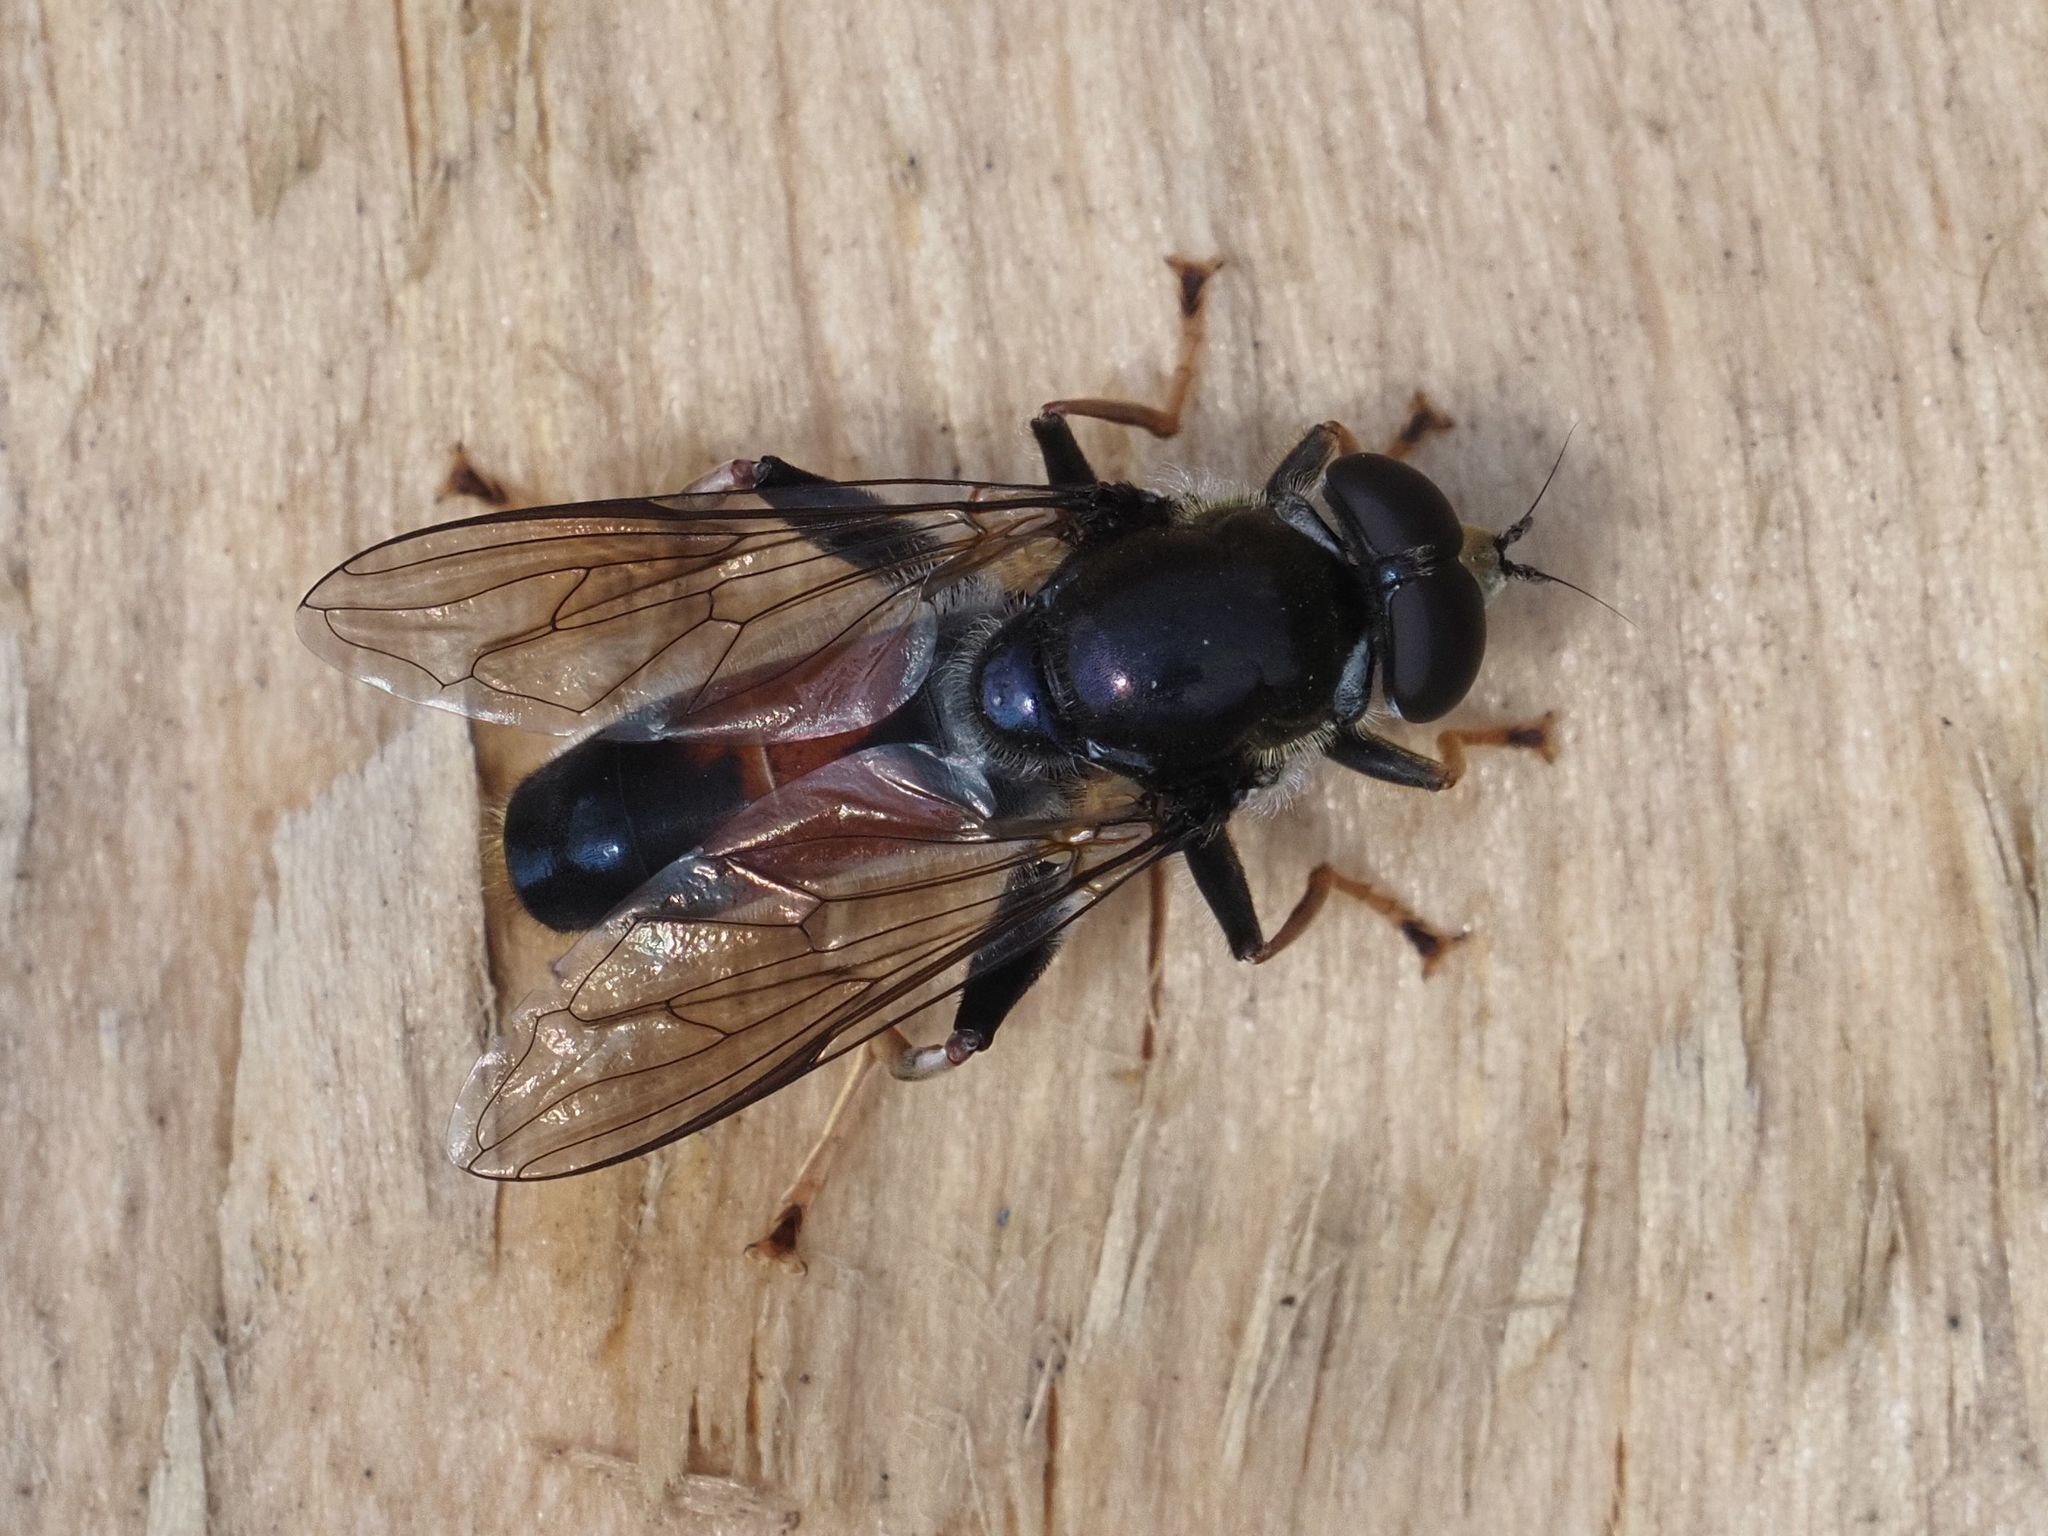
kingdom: Animalia
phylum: Arthropoda
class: Insecta
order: Diptera
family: Syrphidae
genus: Xylota
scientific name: Xylota ignava
